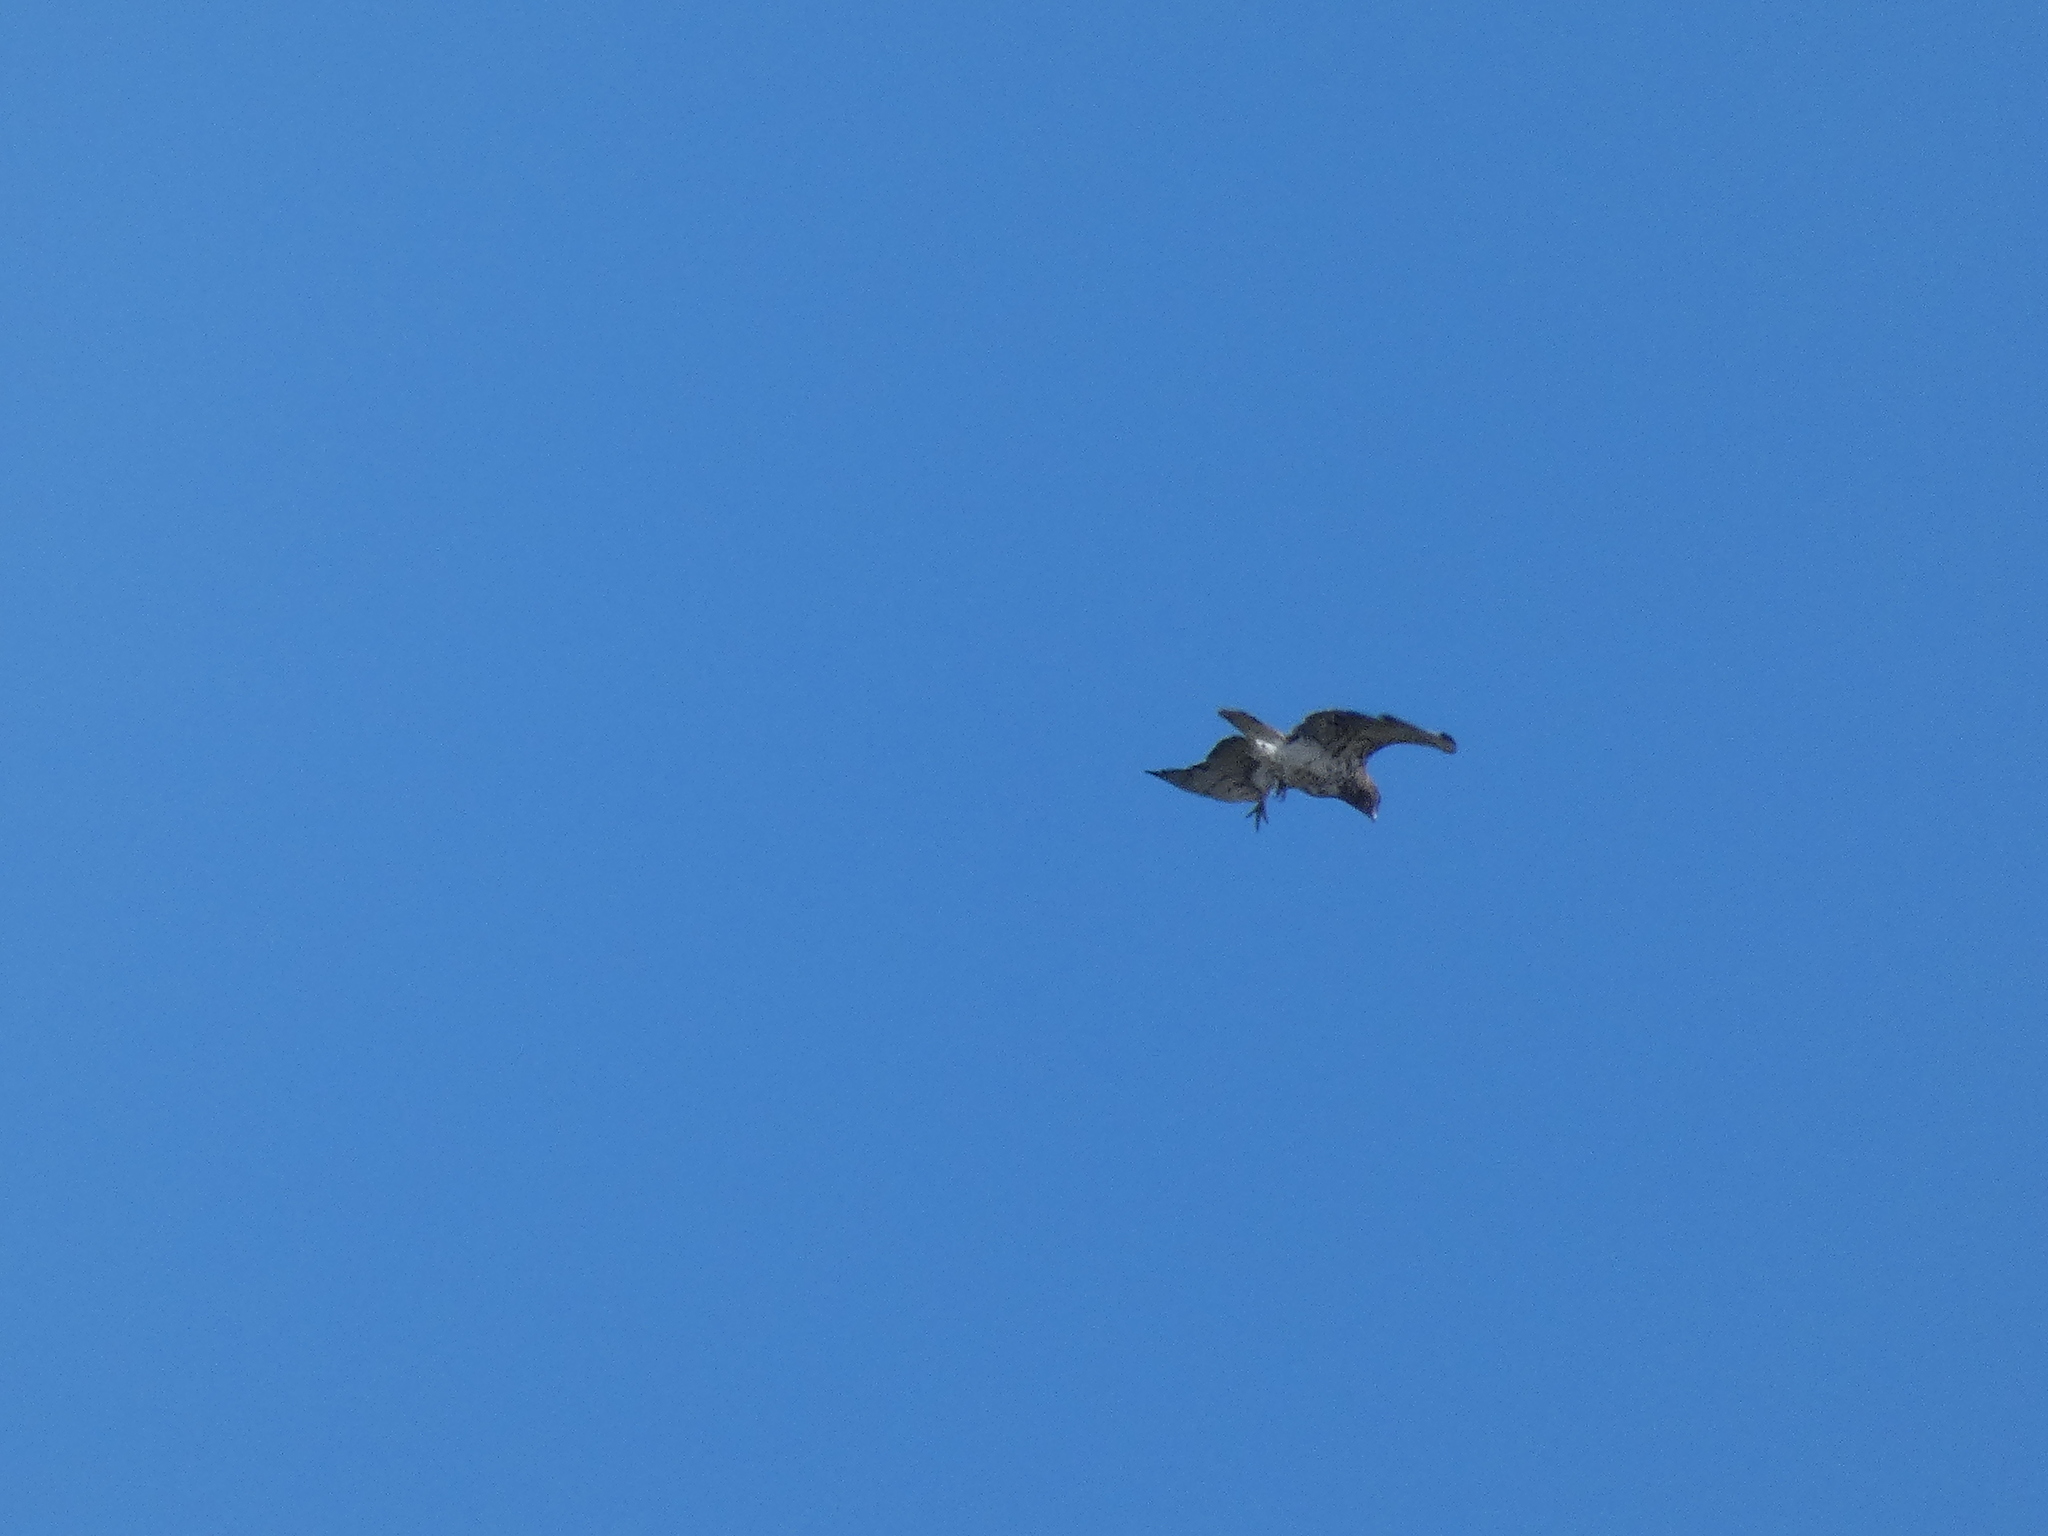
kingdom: Animalia
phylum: Chordata
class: Aves
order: Accipitriformes
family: Accipitridae
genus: Circaetus
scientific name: Circaetus gallicus
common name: Short-toed snake eagle
